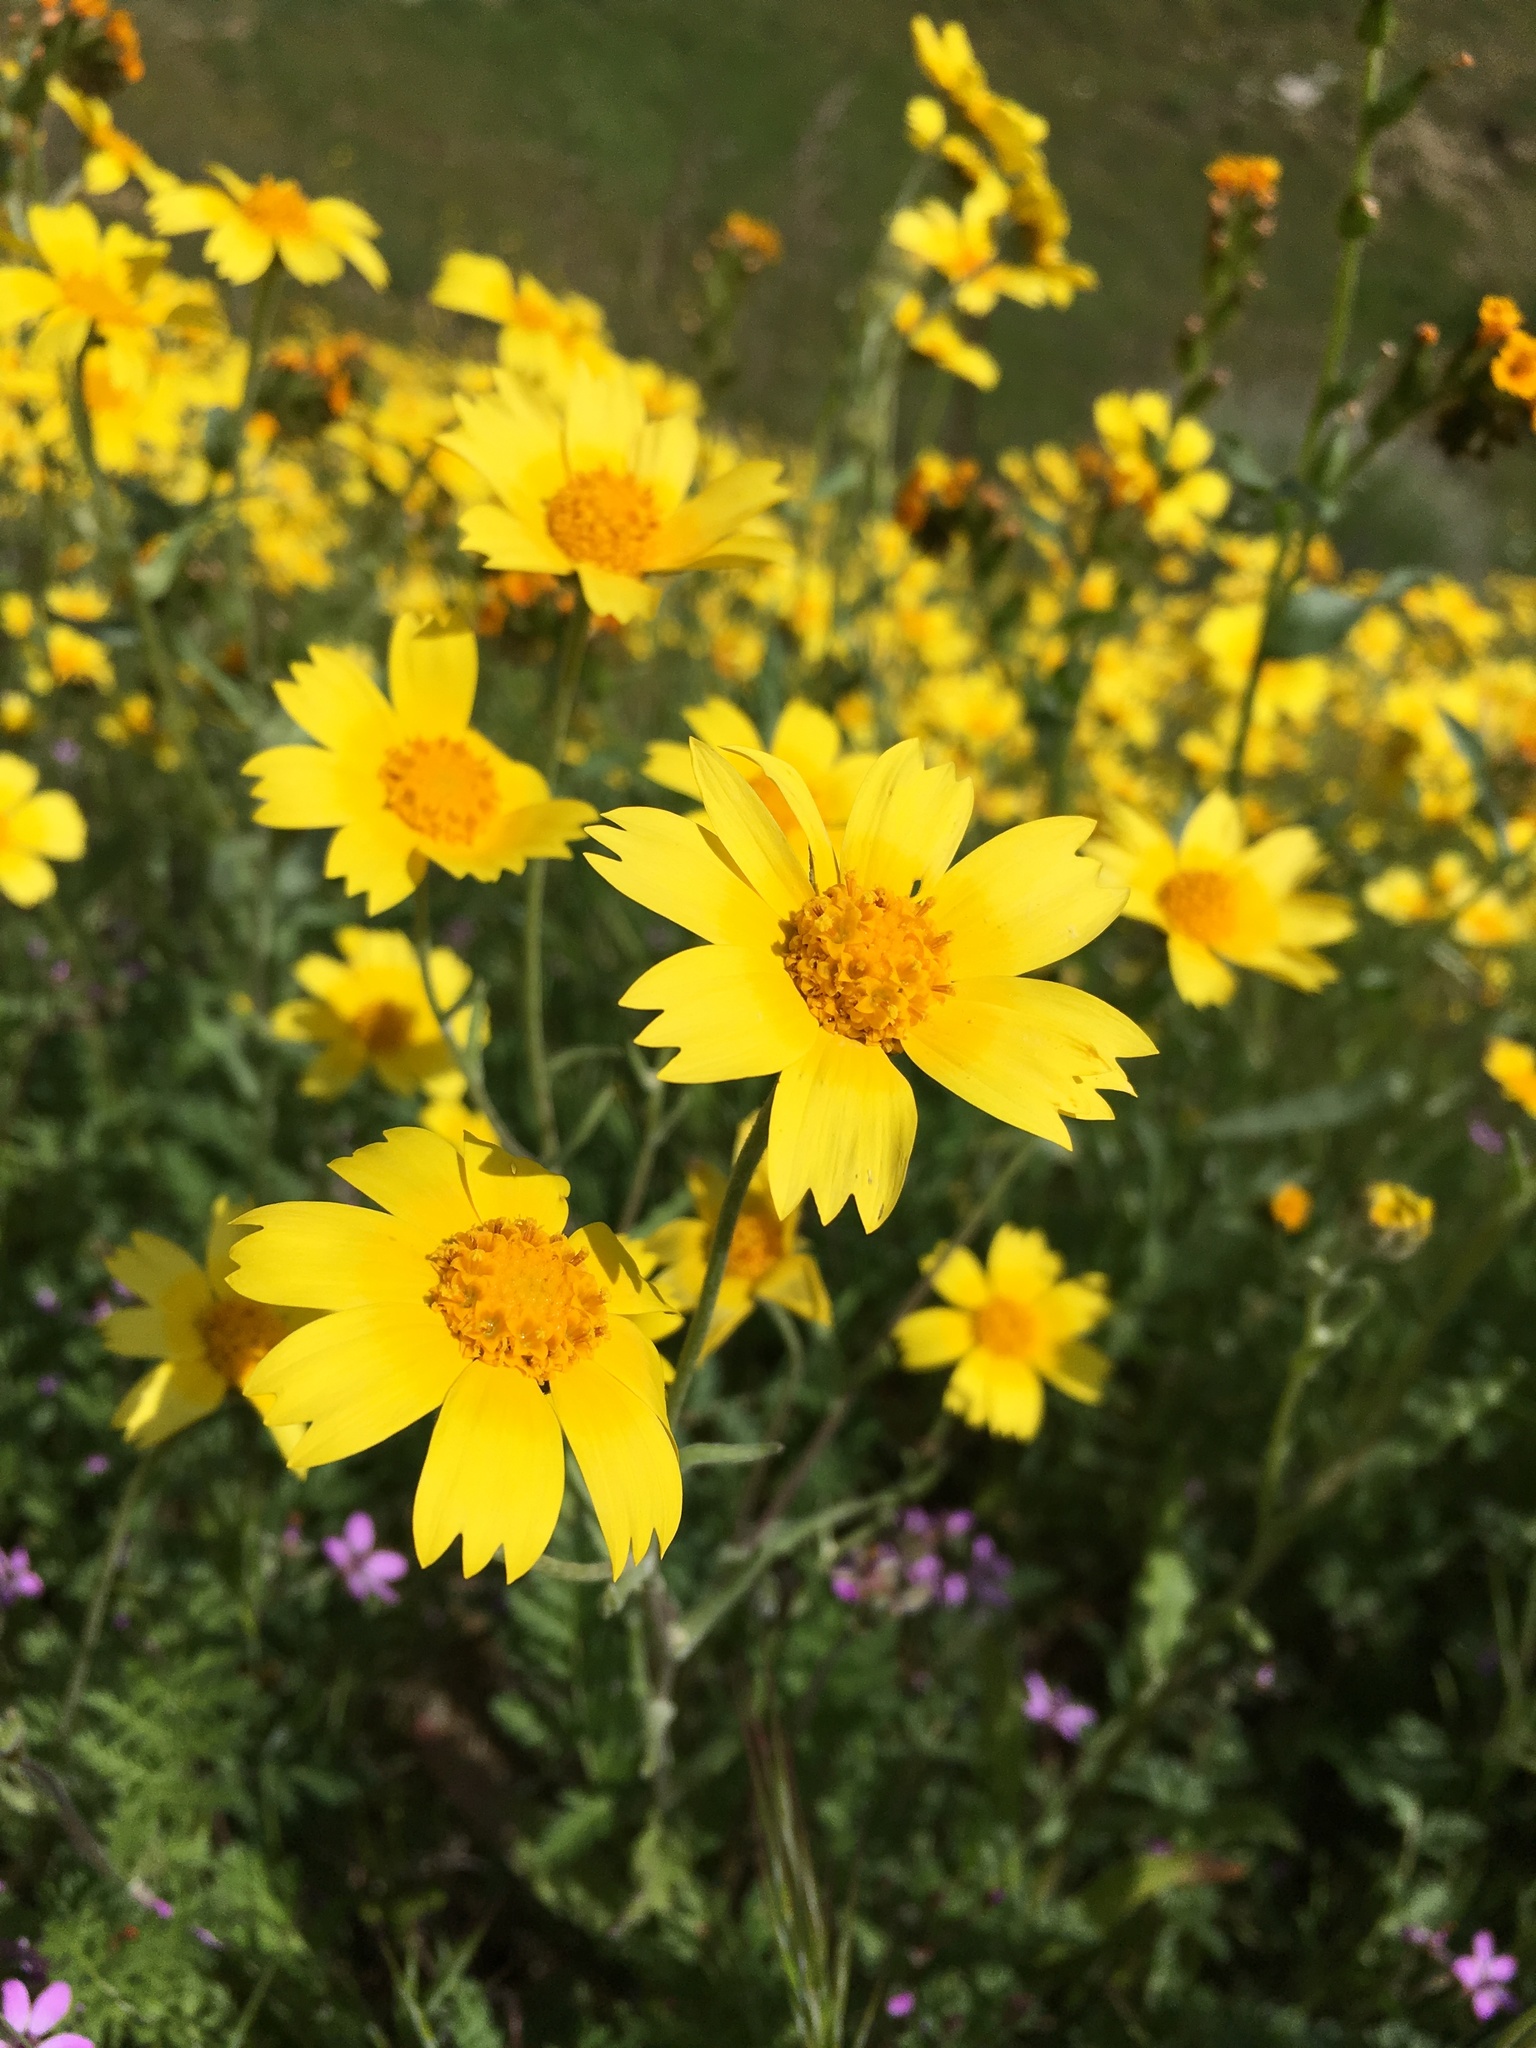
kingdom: Plantae
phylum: Tracheophyta
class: Magnoliopsida
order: Asterales
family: Asteraceae
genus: Monolopia
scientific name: Monolopia lanceolata
